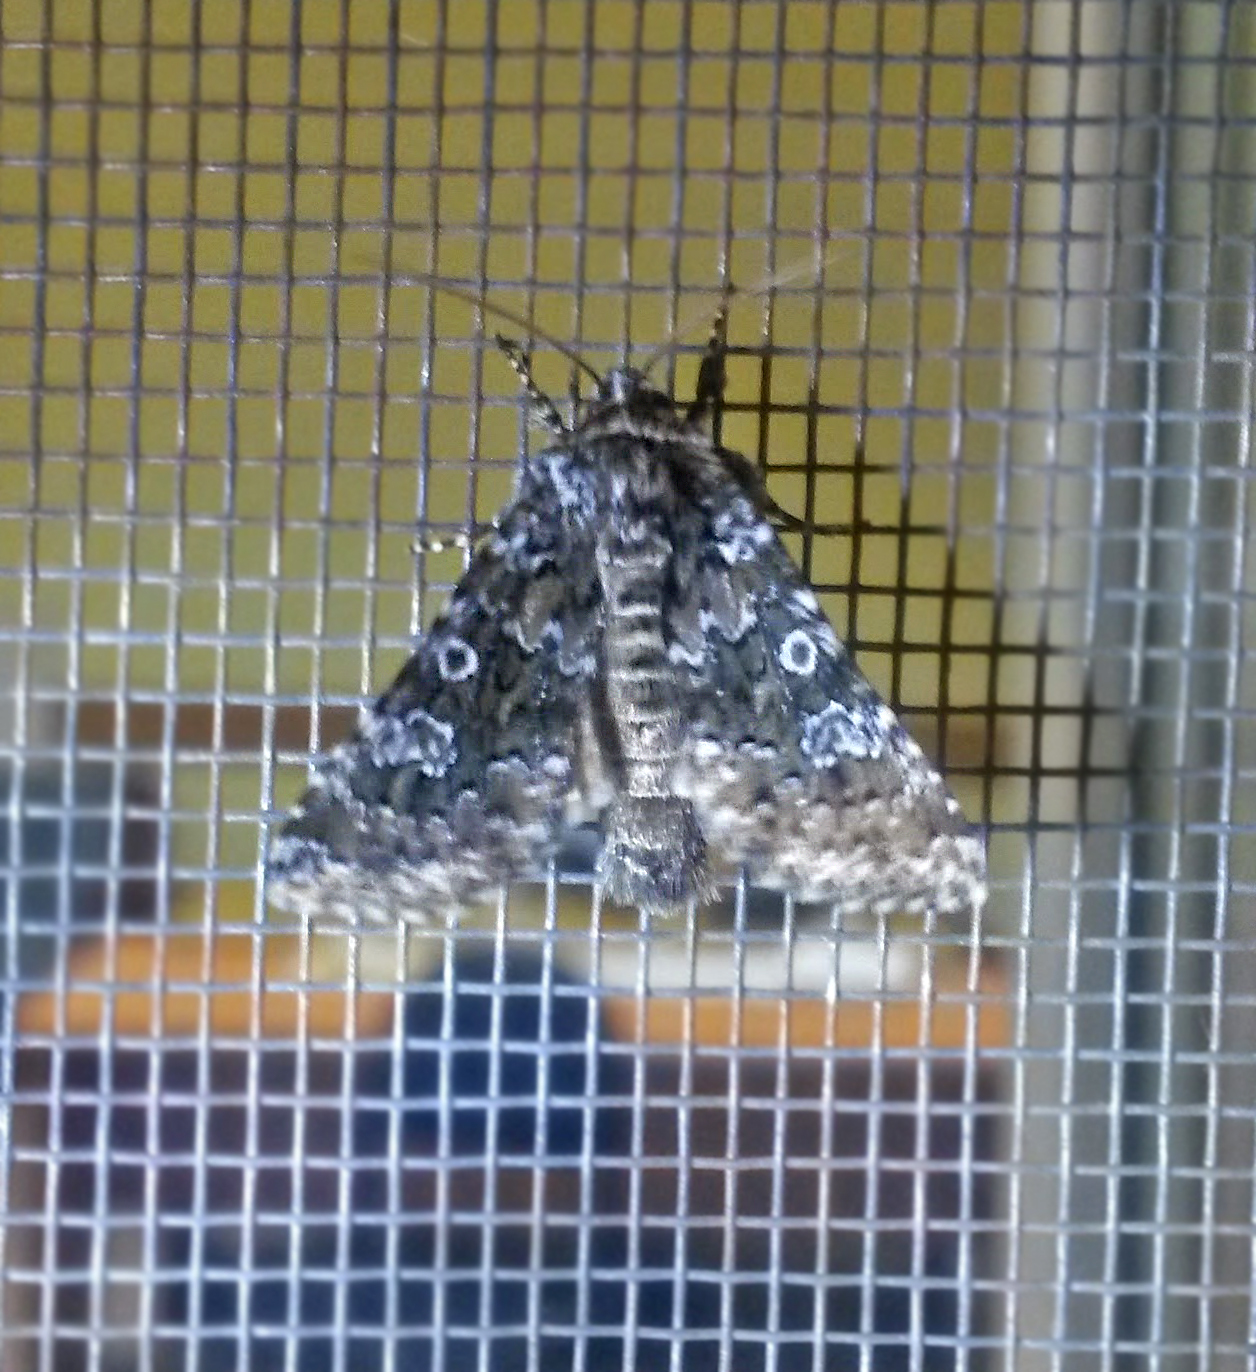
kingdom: Animalia
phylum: Arthropoda
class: Insecta
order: Lepidoptera
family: Noctuidae
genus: Hadena
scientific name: Hadena magnolii
